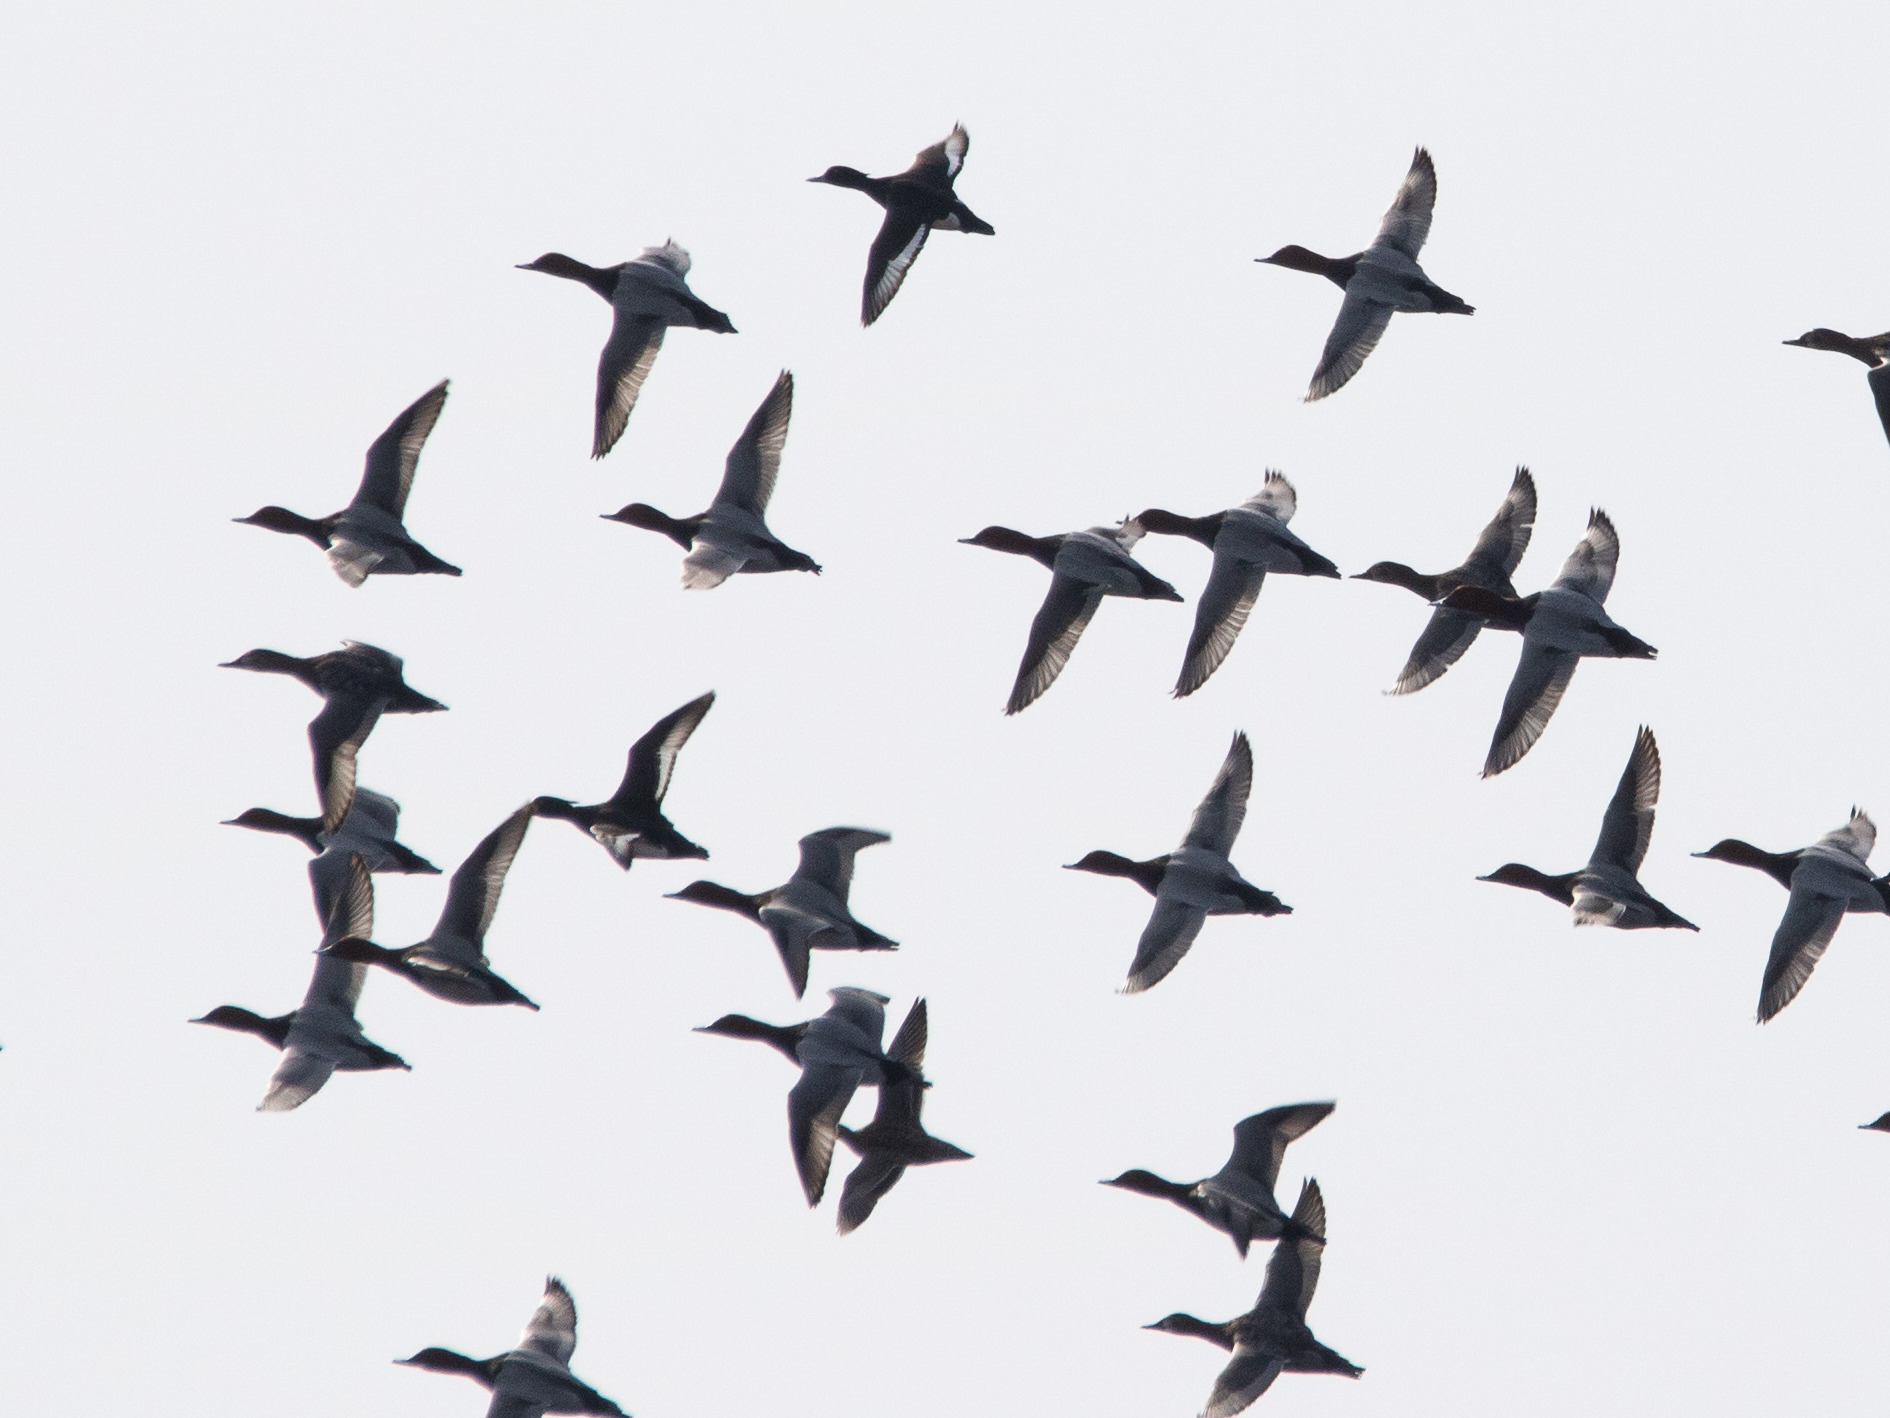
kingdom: Animalia
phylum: Chordata
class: Aves
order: Anseriformes
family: Anatidae
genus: Aythya
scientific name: Aythya ferina
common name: Common pochard
